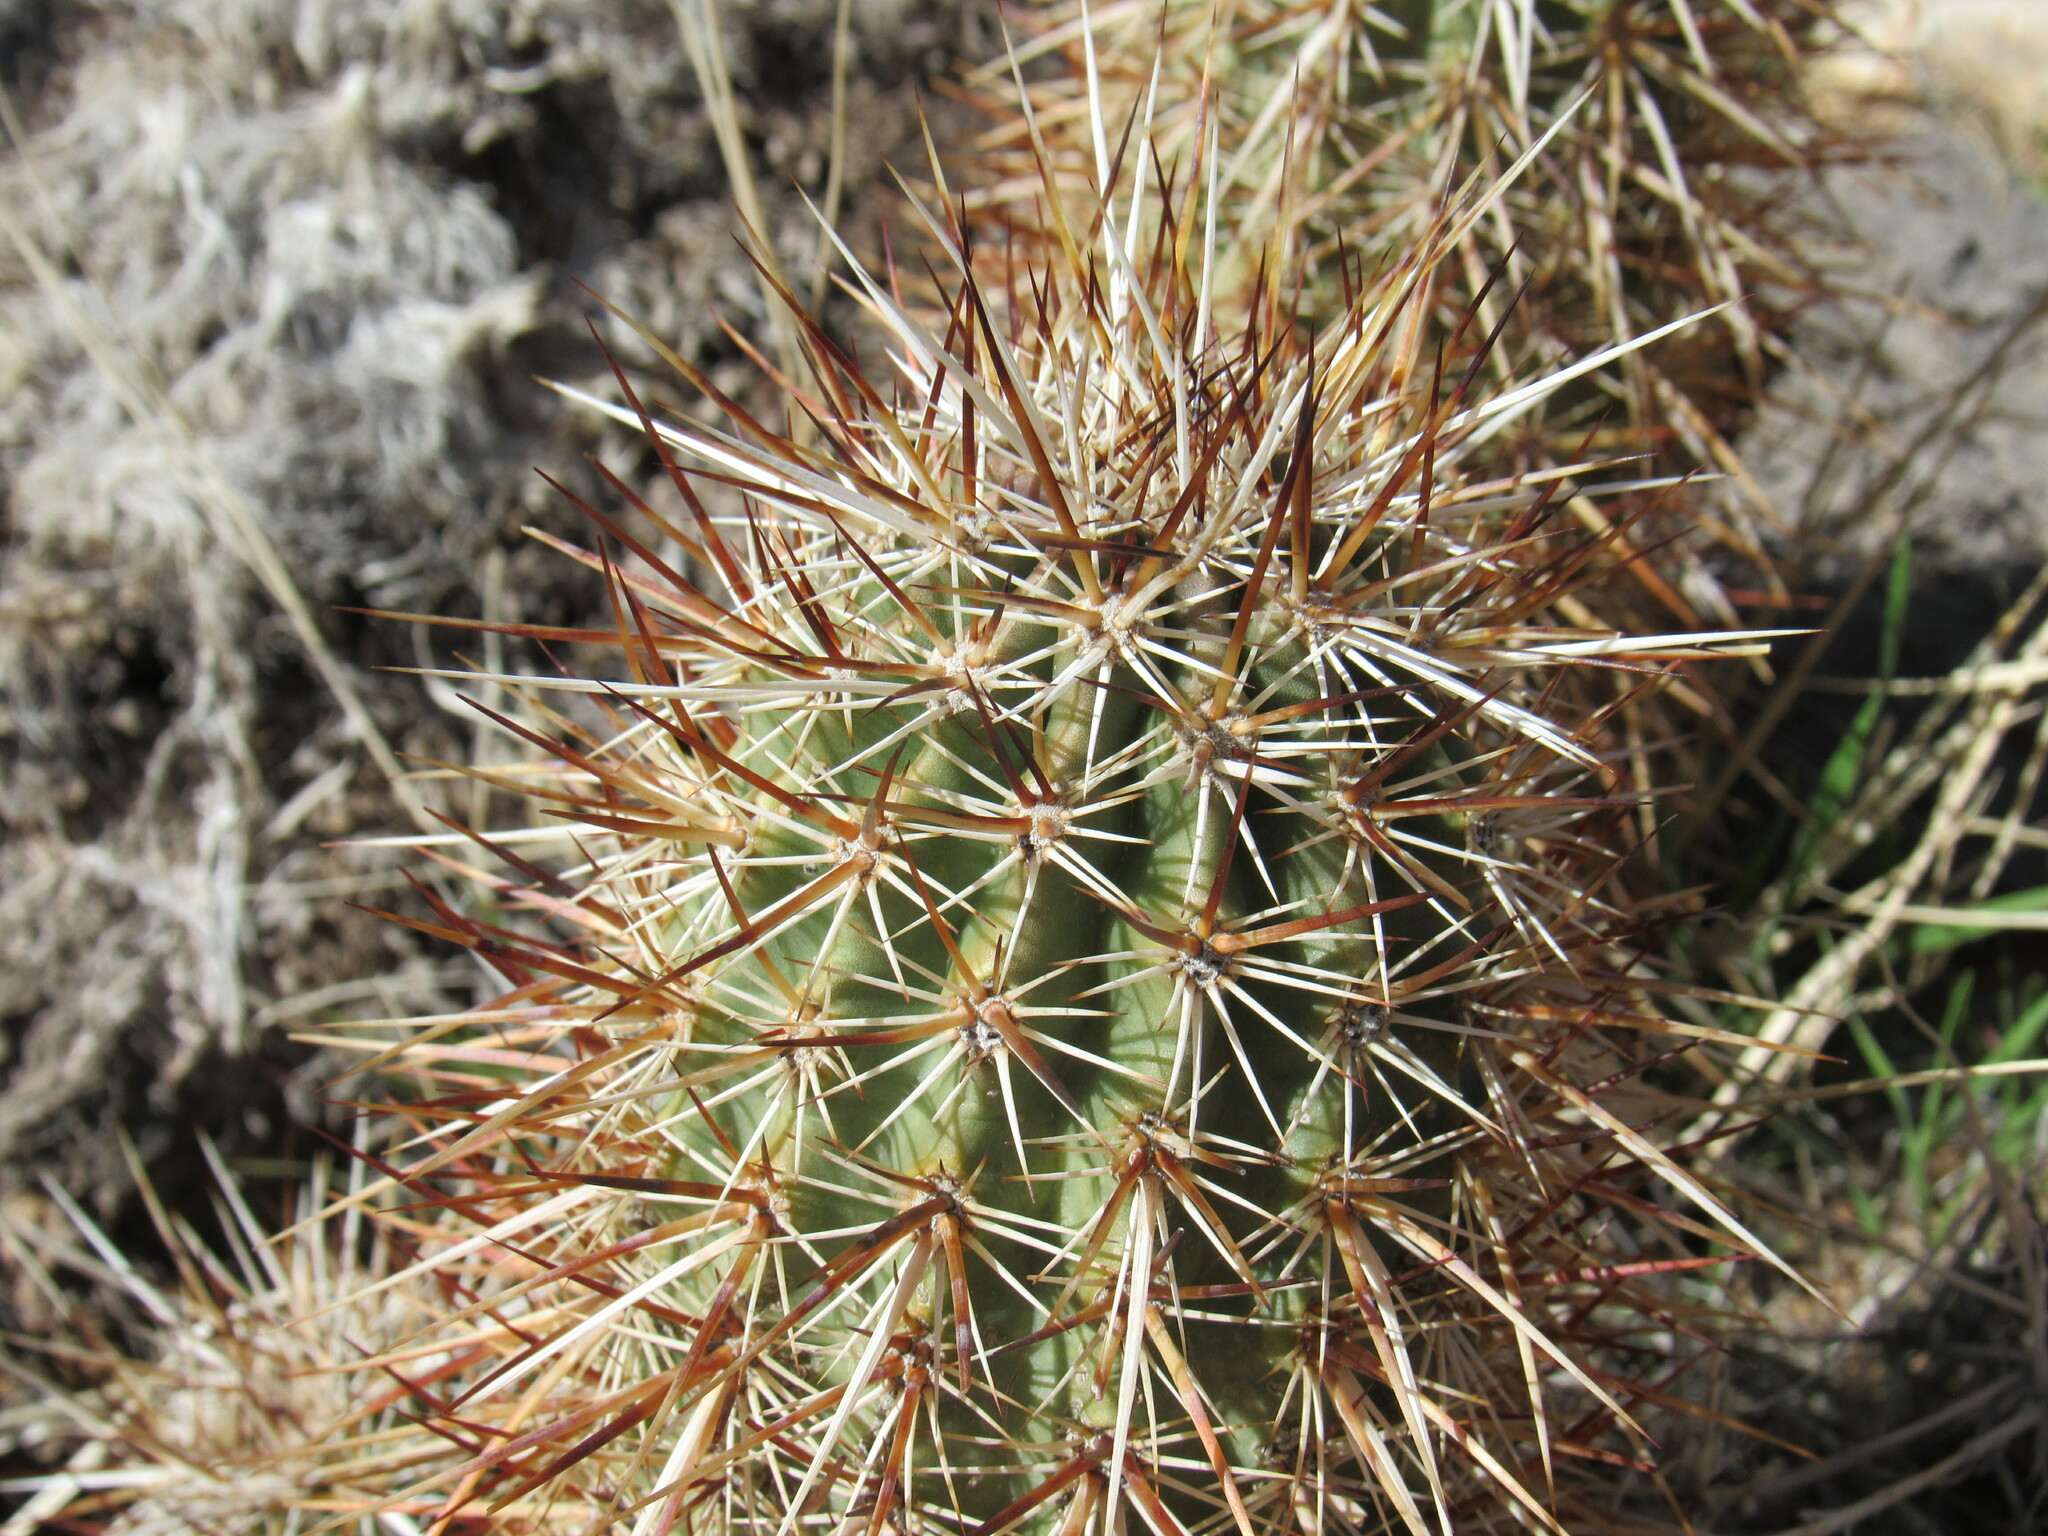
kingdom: Plantae
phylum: Tracheophyta
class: Magnoliopsida
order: Caryophyllales
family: Cactaceae
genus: Echinocereus
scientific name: Echinocereus engelmannii
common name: Engelmann's hedgehog cactus
